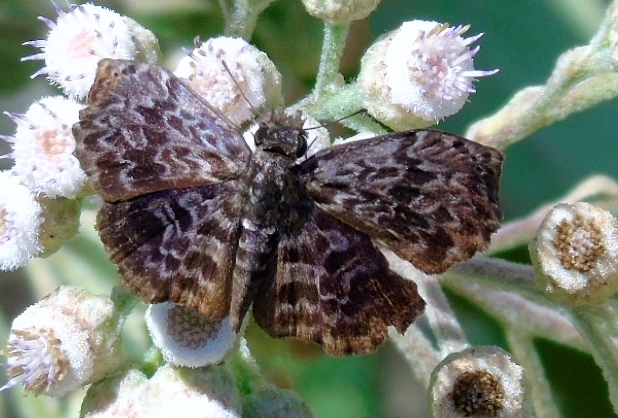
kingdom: Animalia
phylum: Arthropoda
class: Insecta
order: Lepidoptera
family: Hesperiidae
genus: Cycloglypha
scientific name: Cycloglypha thrasibulus
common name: Widespread bent-skipper
